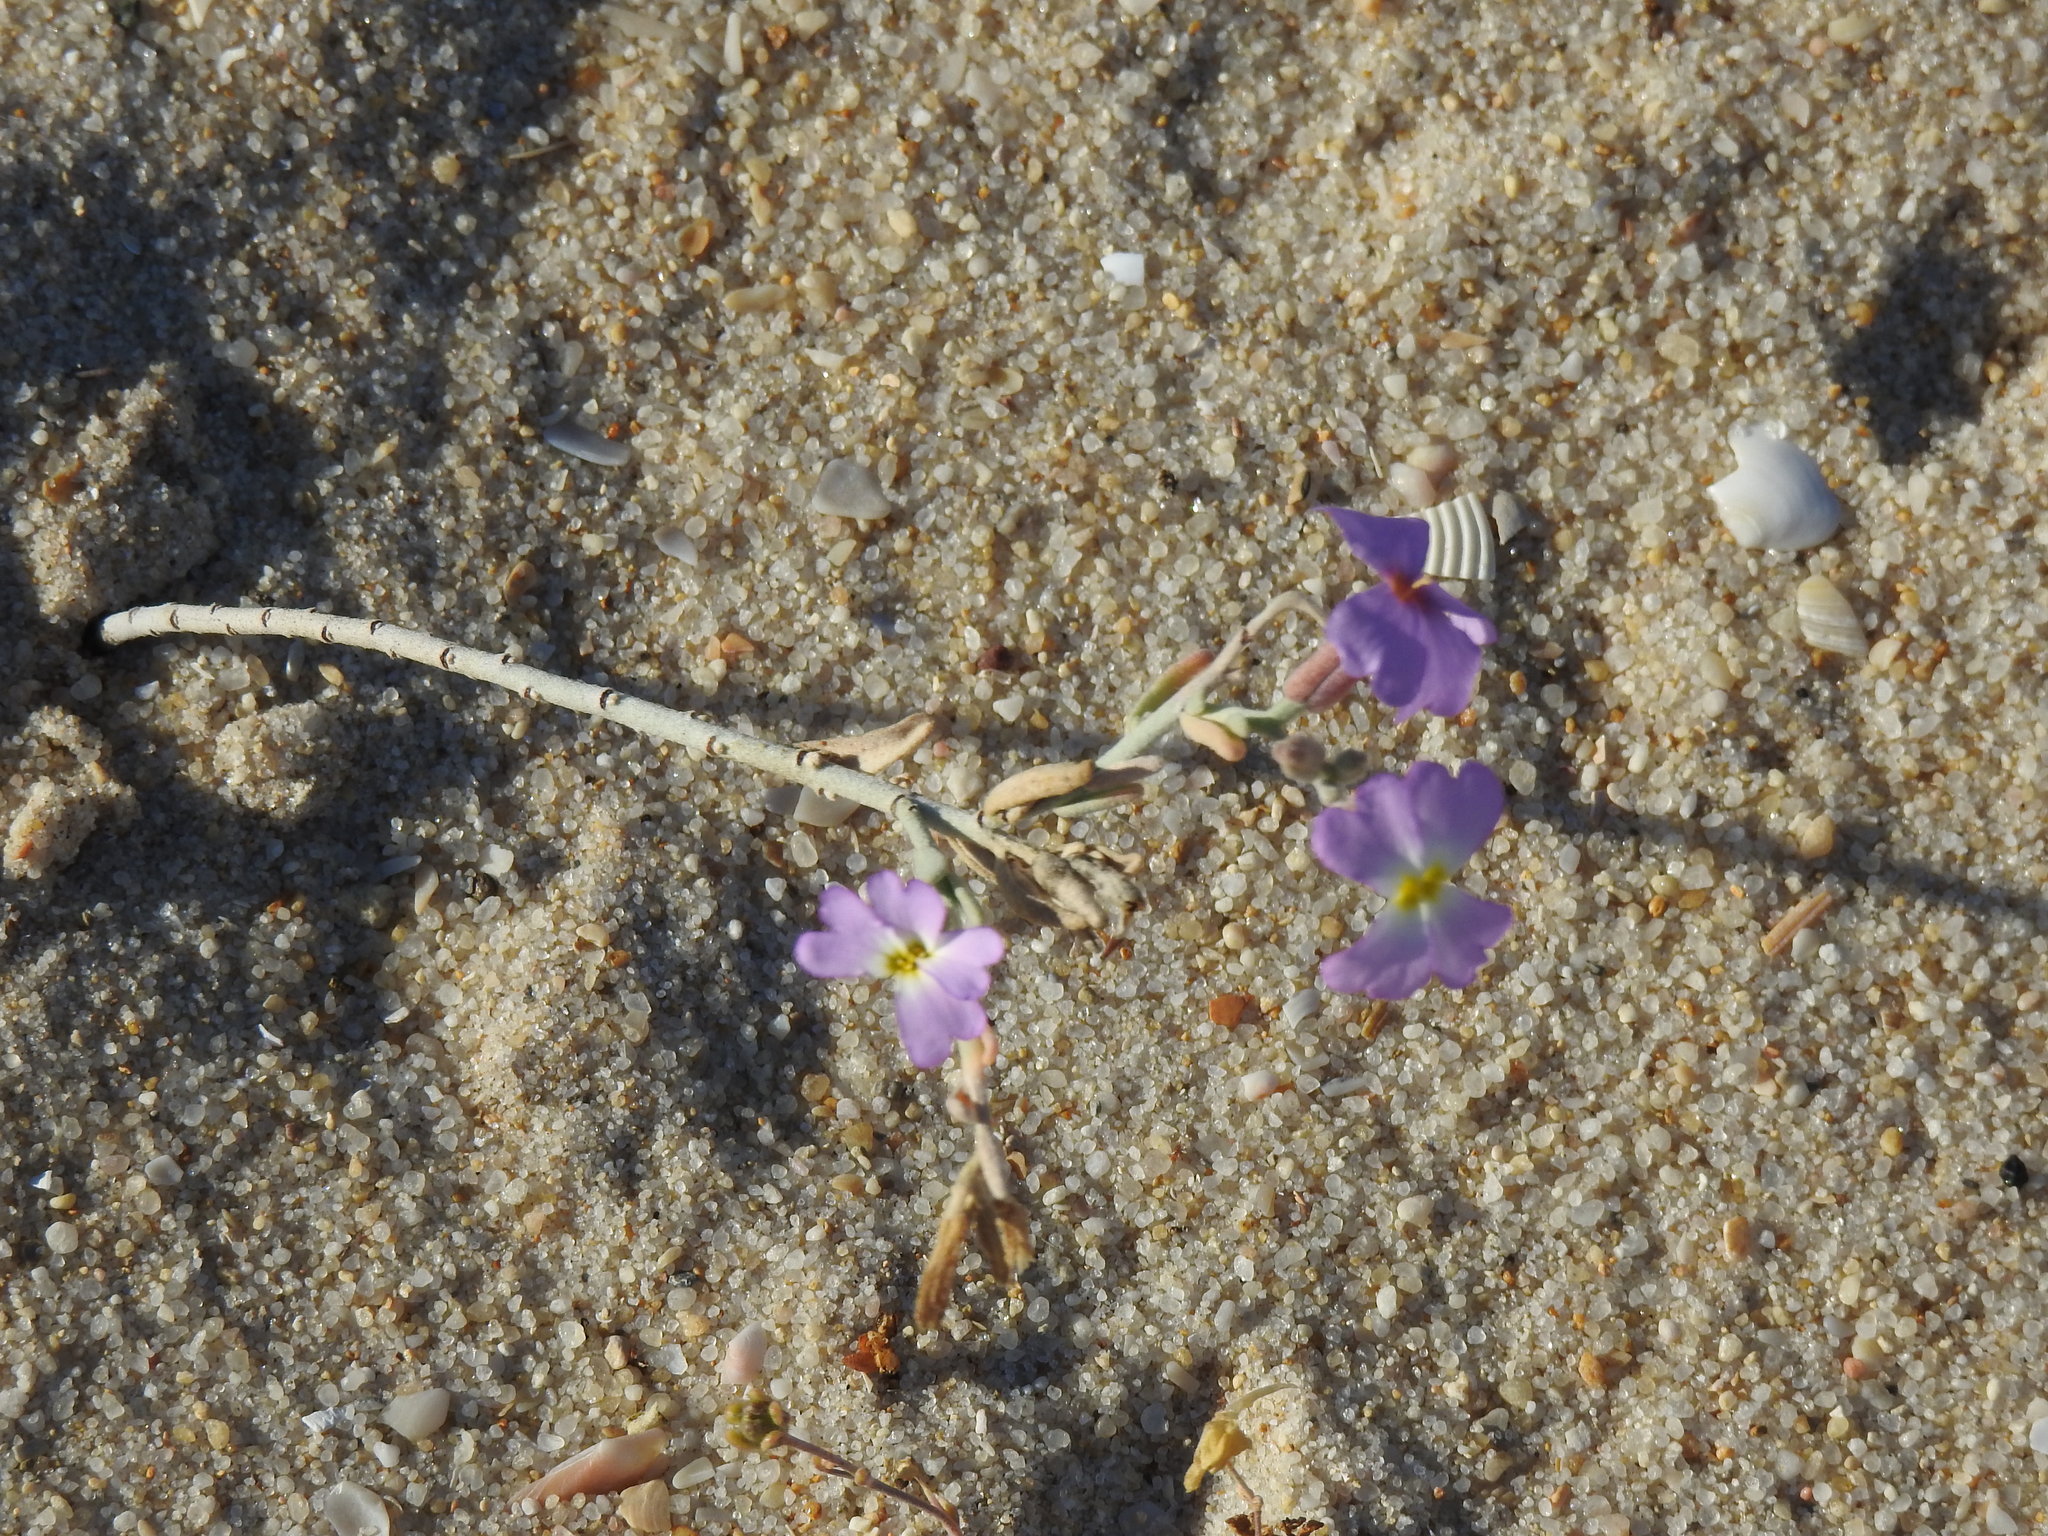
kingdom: Plantae
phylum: Tracheophyta
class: Magnoliopsida
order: Brassicales
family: Brassicaceae
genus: Marcuskochia
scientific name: Marcuskochia littorea
